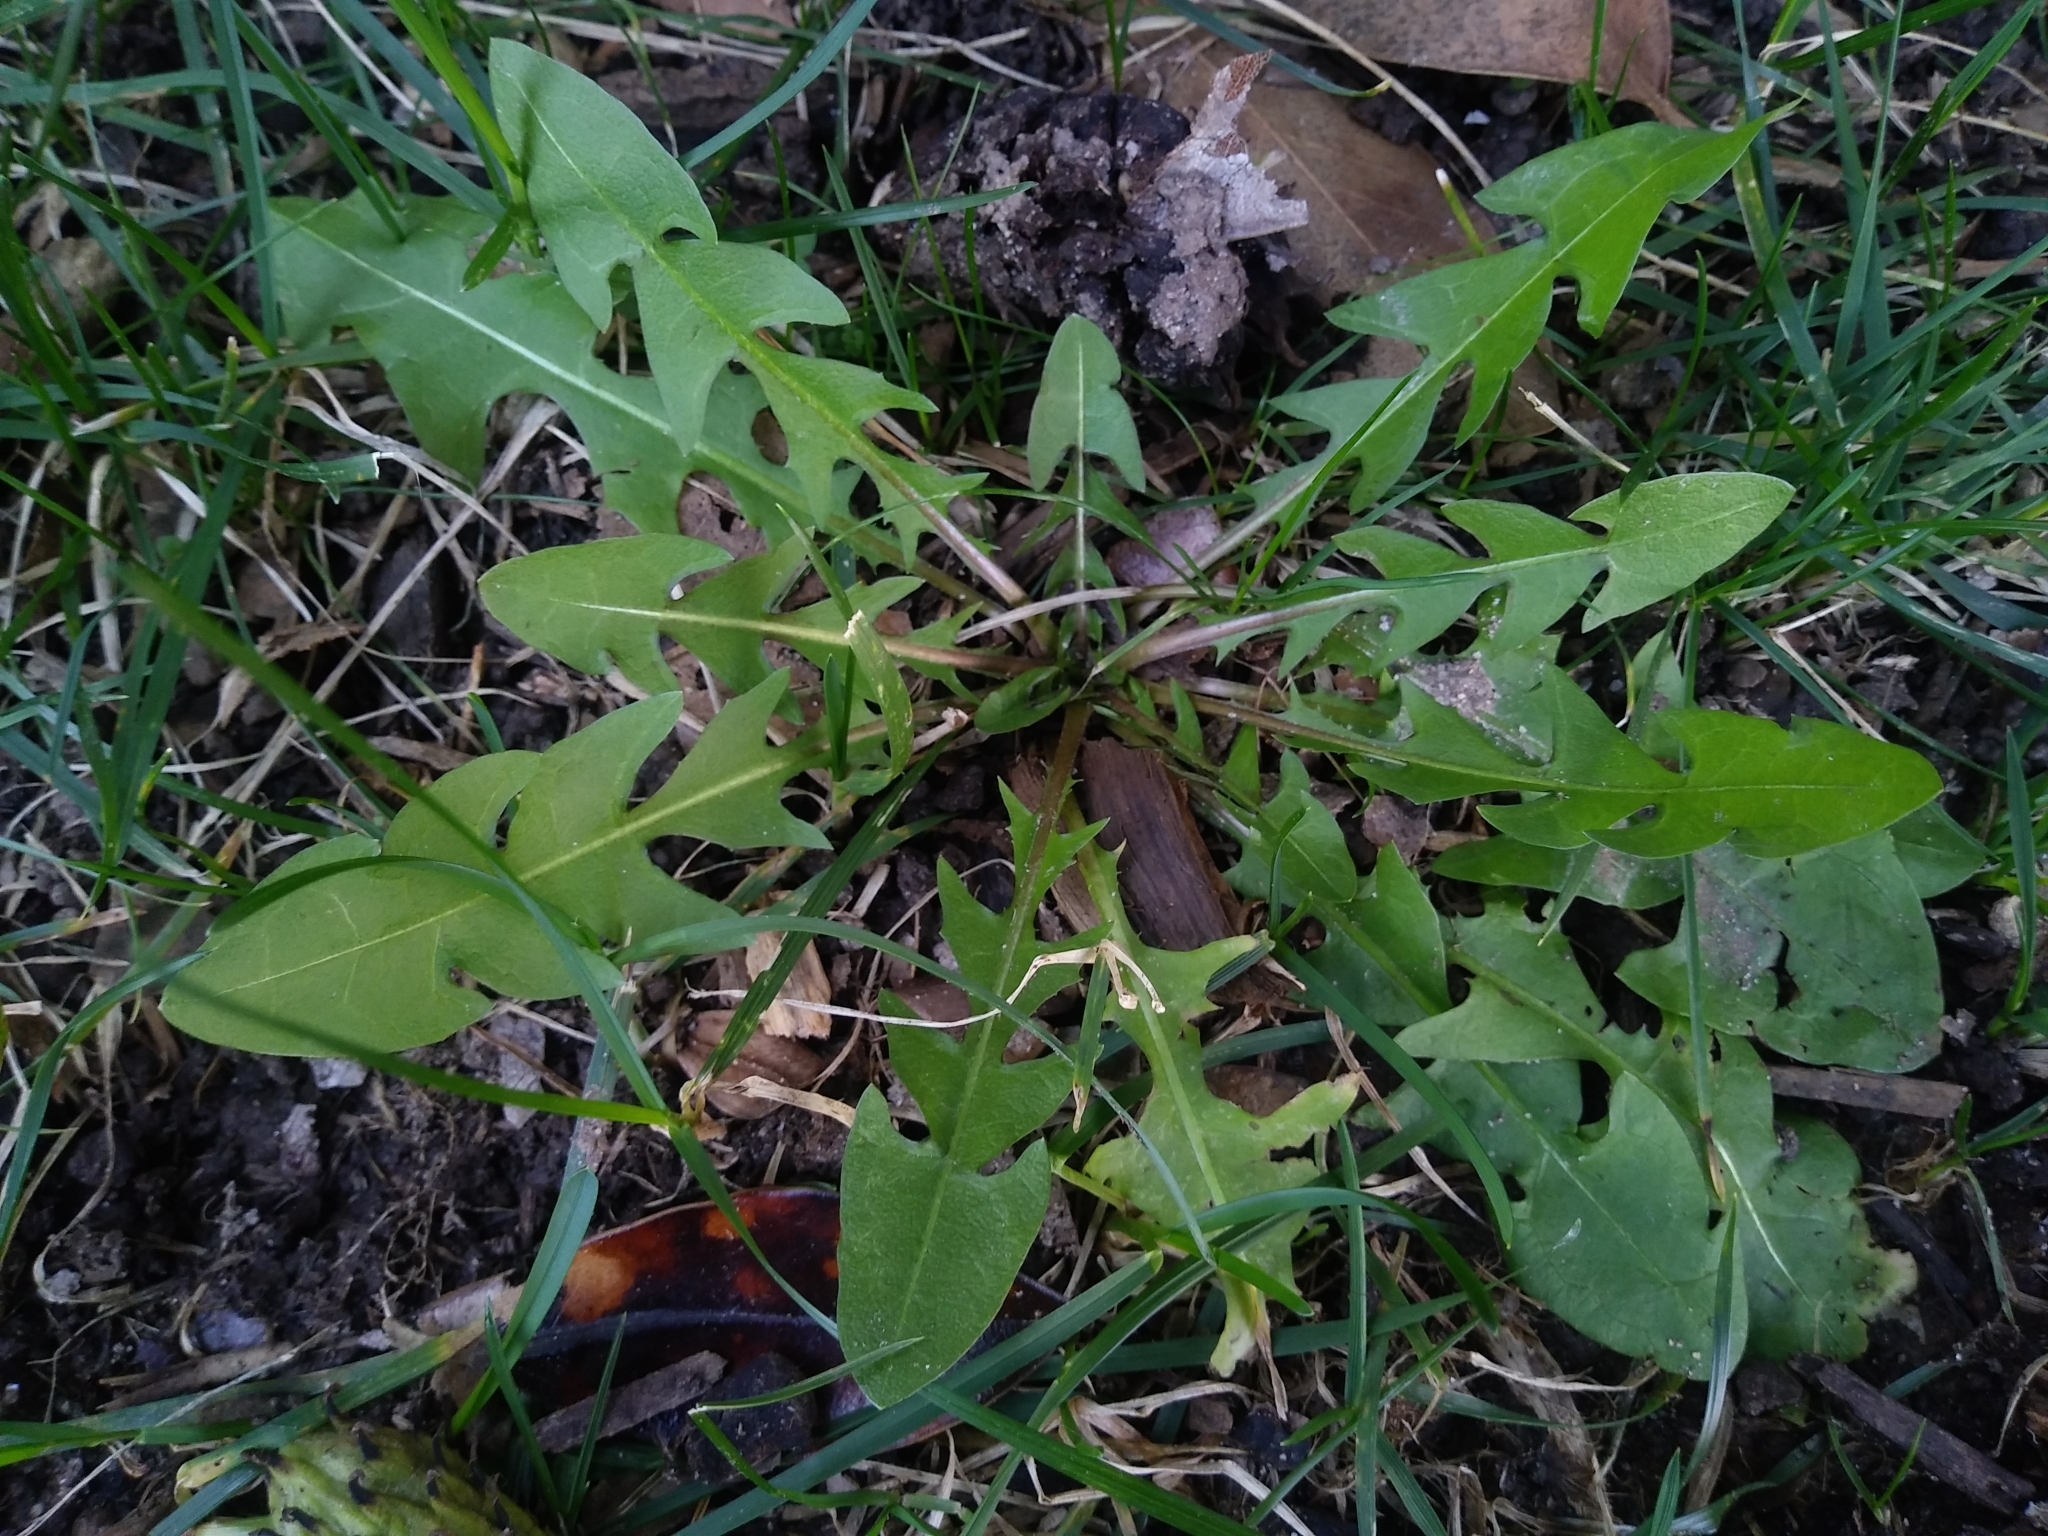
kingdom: Plantae
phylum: Tracheophyta
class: Magnoliopsida
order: Asterales
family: Asteraceae
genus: Taraxacum
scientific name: Taraxacum officinale
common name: Common dandelion
